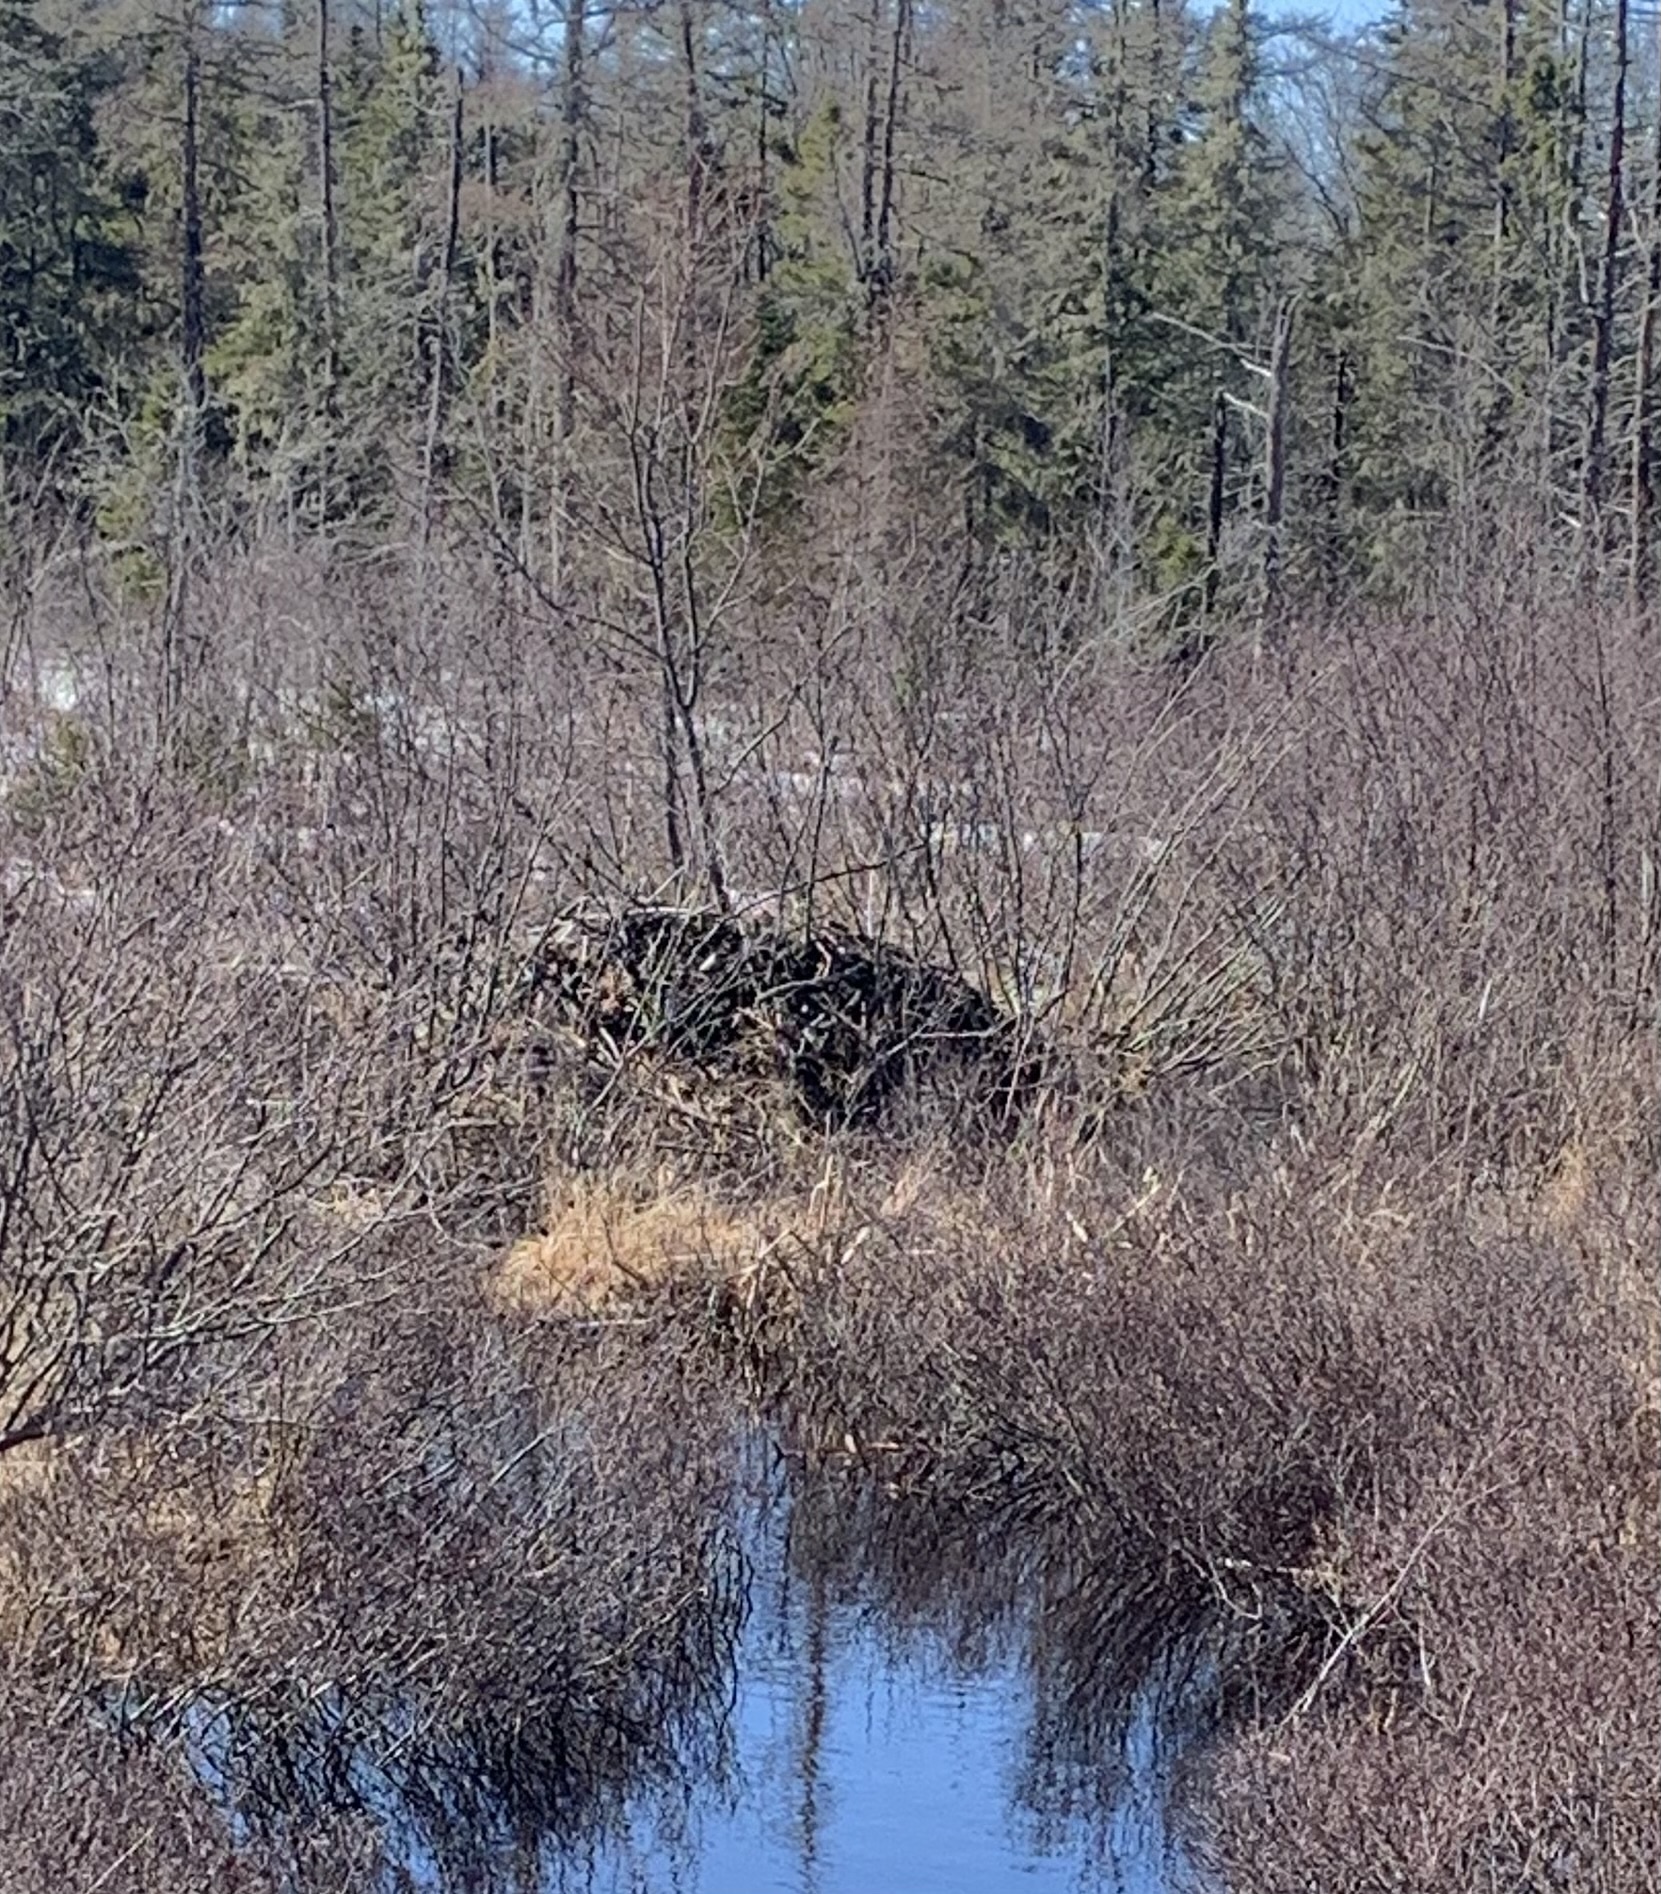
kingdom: Animalia
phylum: Chordata
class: Mammalia
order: Rodentia
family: Castoridae
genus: Castor
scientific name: Castor canadensis
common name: American beaver
